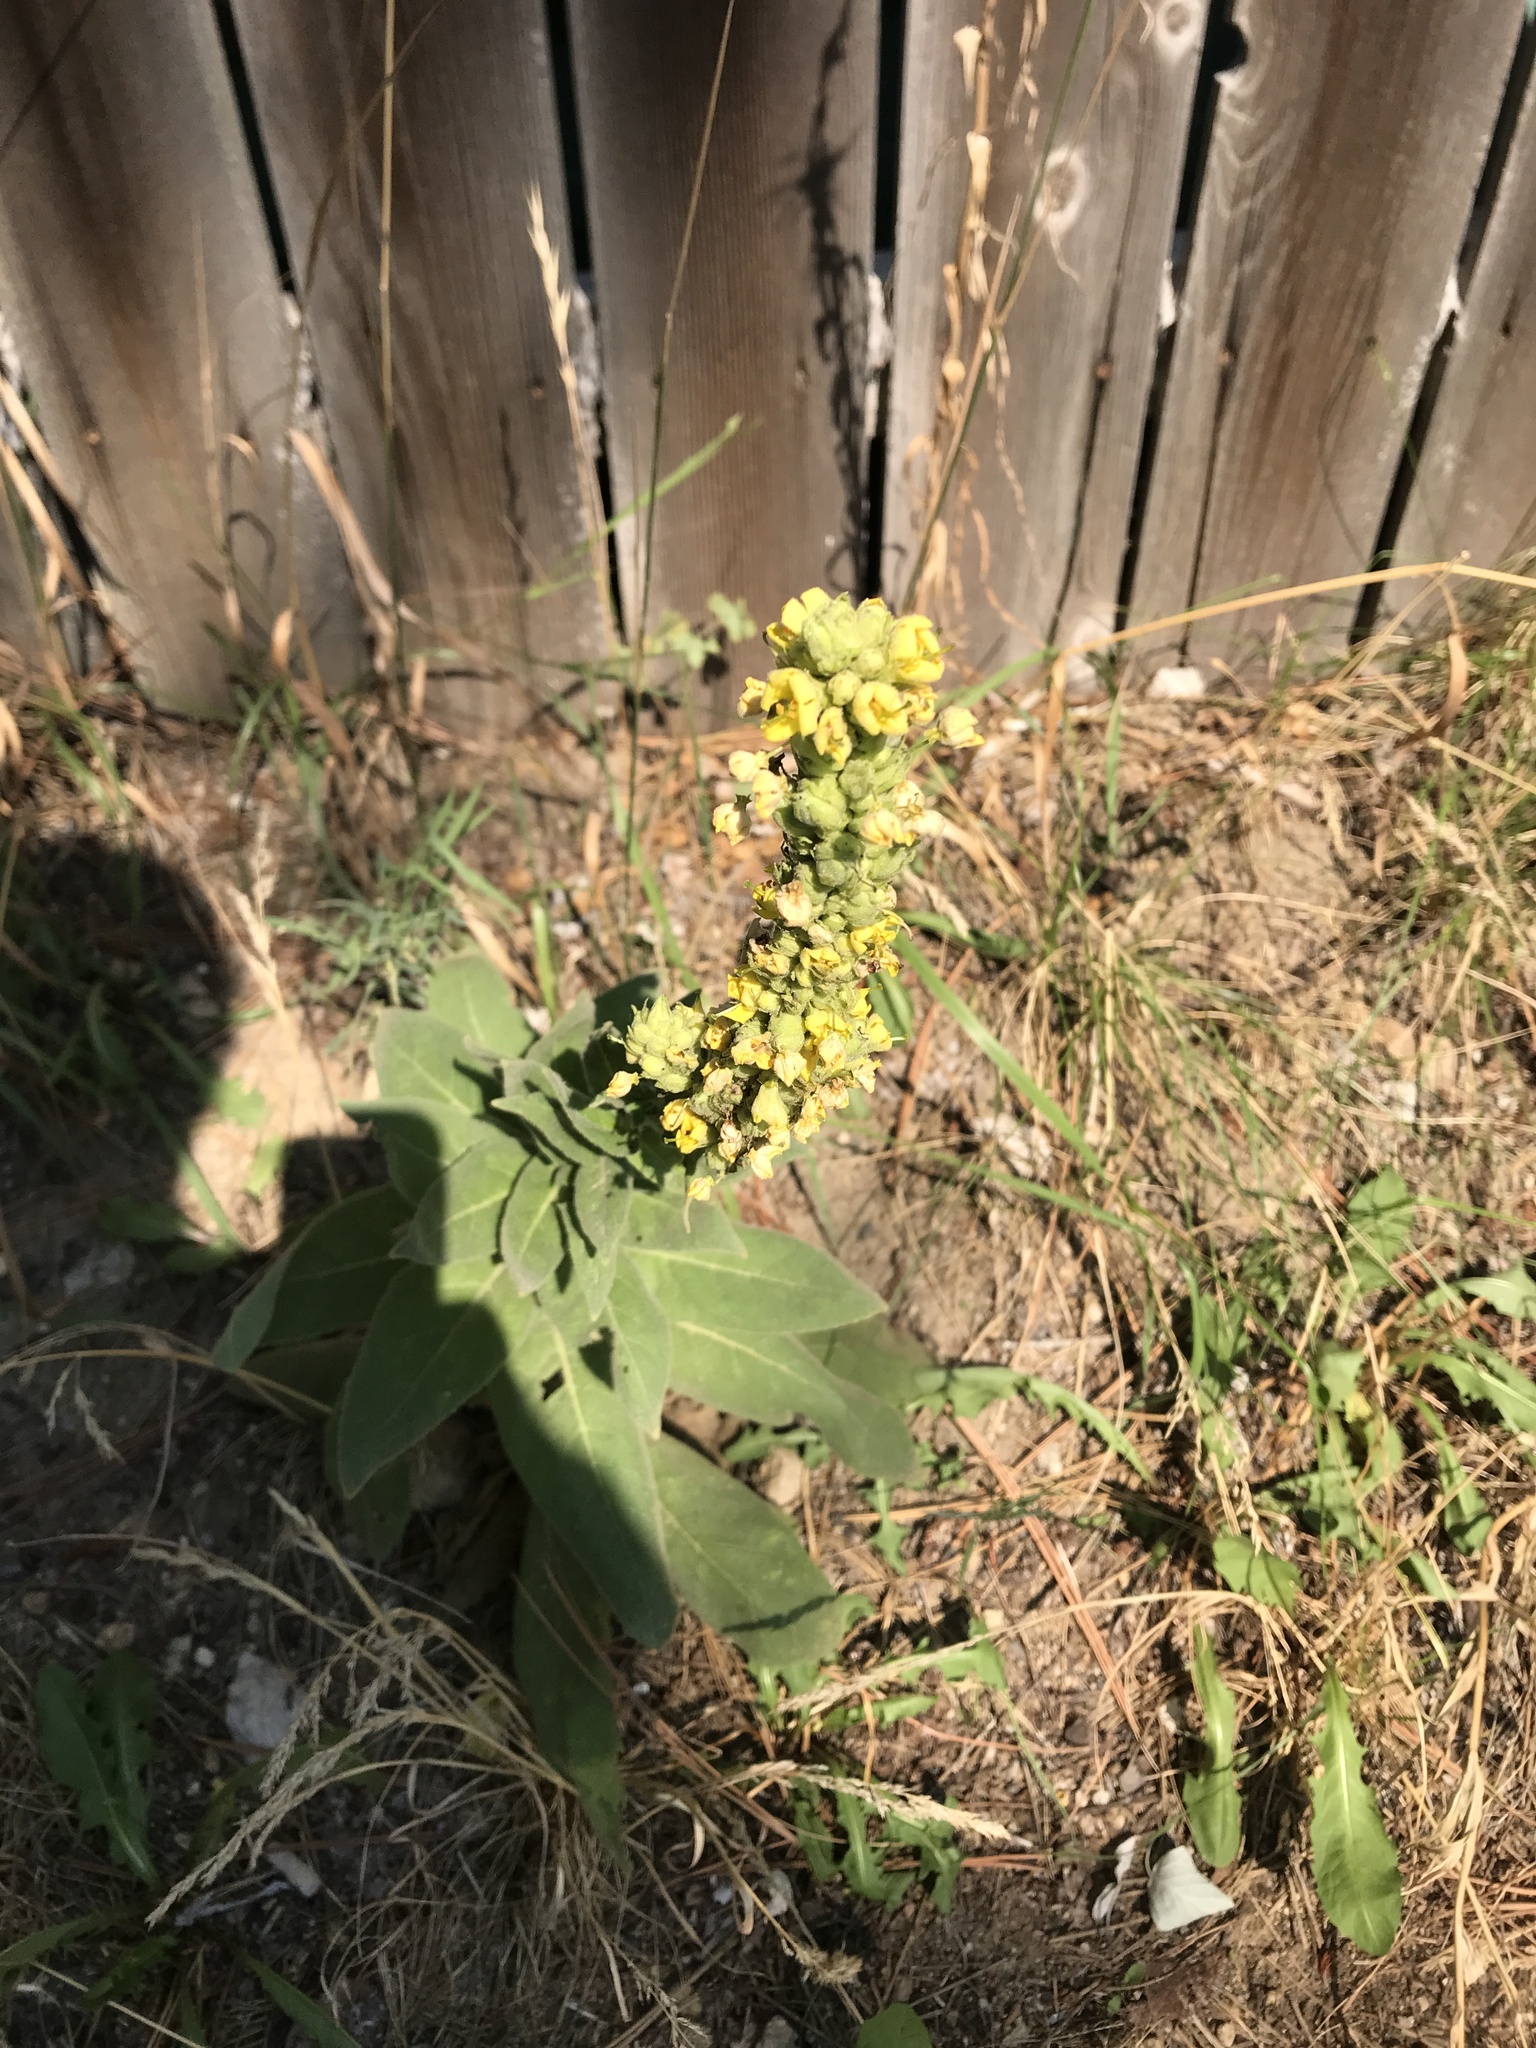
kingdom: Plantae
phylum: Tracheophyta
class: Magnoliopsida
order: Lamiales
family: Scrophulariaceae
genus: Verbascum
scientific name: Verbascum thapsus
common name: Common mullein
